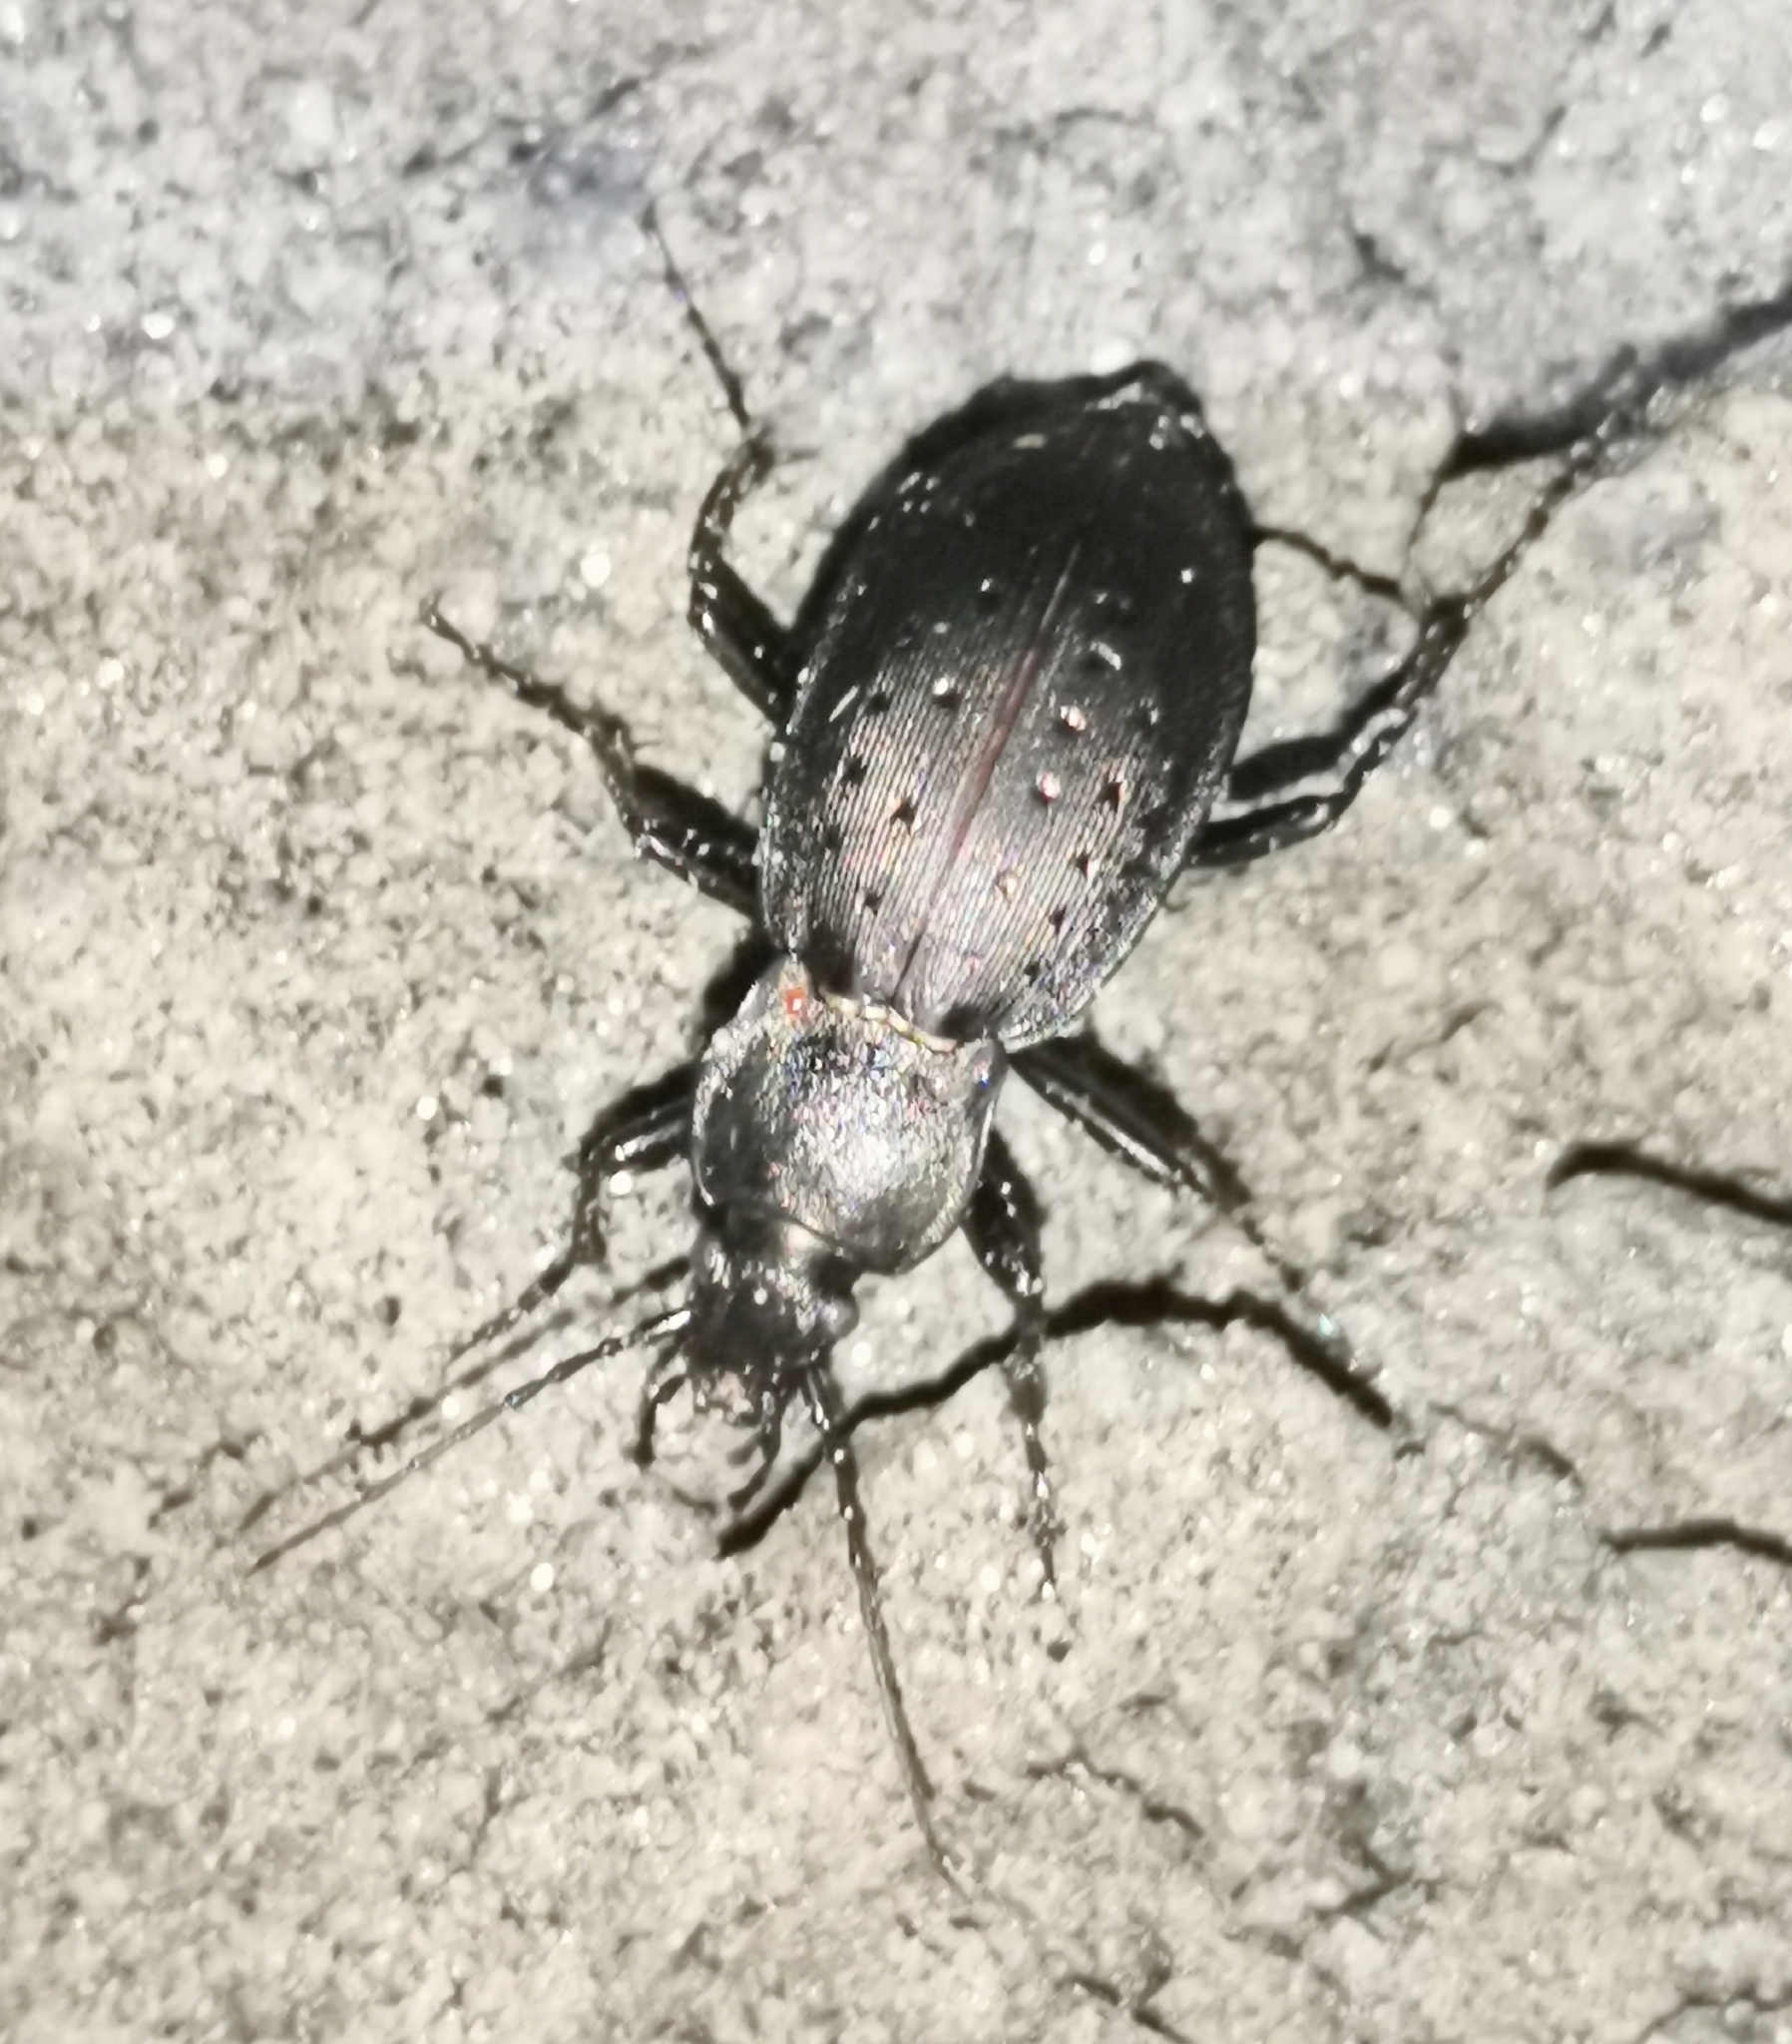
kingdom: Animalia
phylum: Arthropoda
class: Insecta
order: Coleoptera
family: Carabidae
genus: Carabus
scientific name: Carabus hortensis
